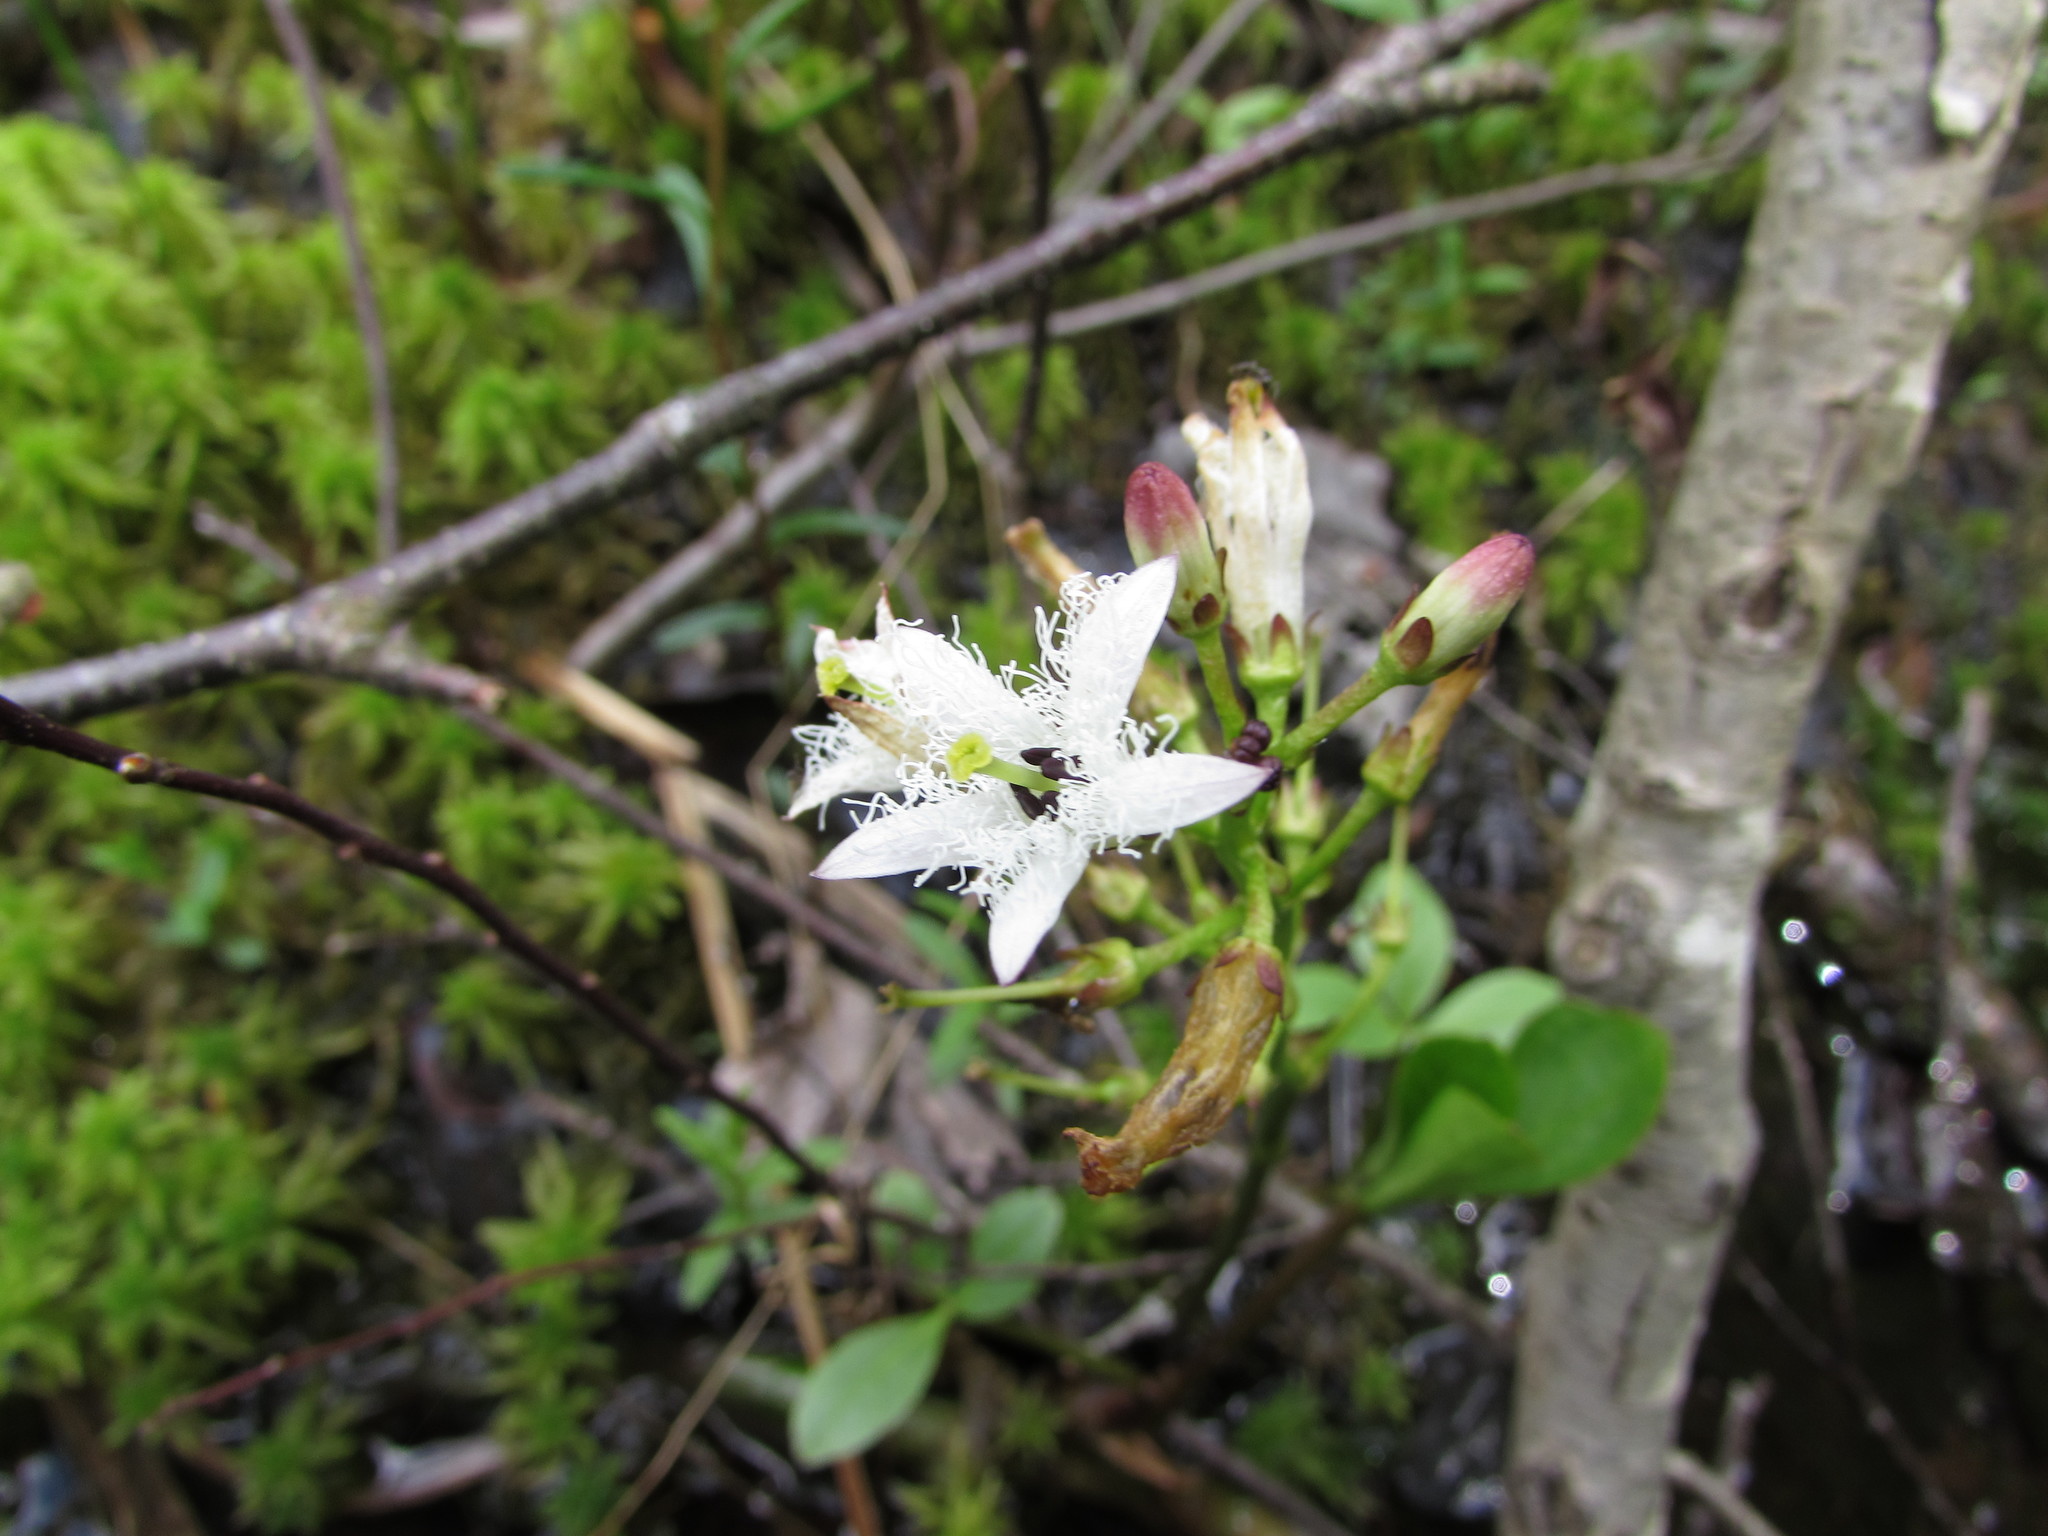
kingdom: Plantae
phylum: Tracheophyta
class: Magnoliopsida
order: Asterales
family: Menyanthaceae
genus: Menyanthes
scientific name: Menyanthes trifoliata
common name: Bogbean
